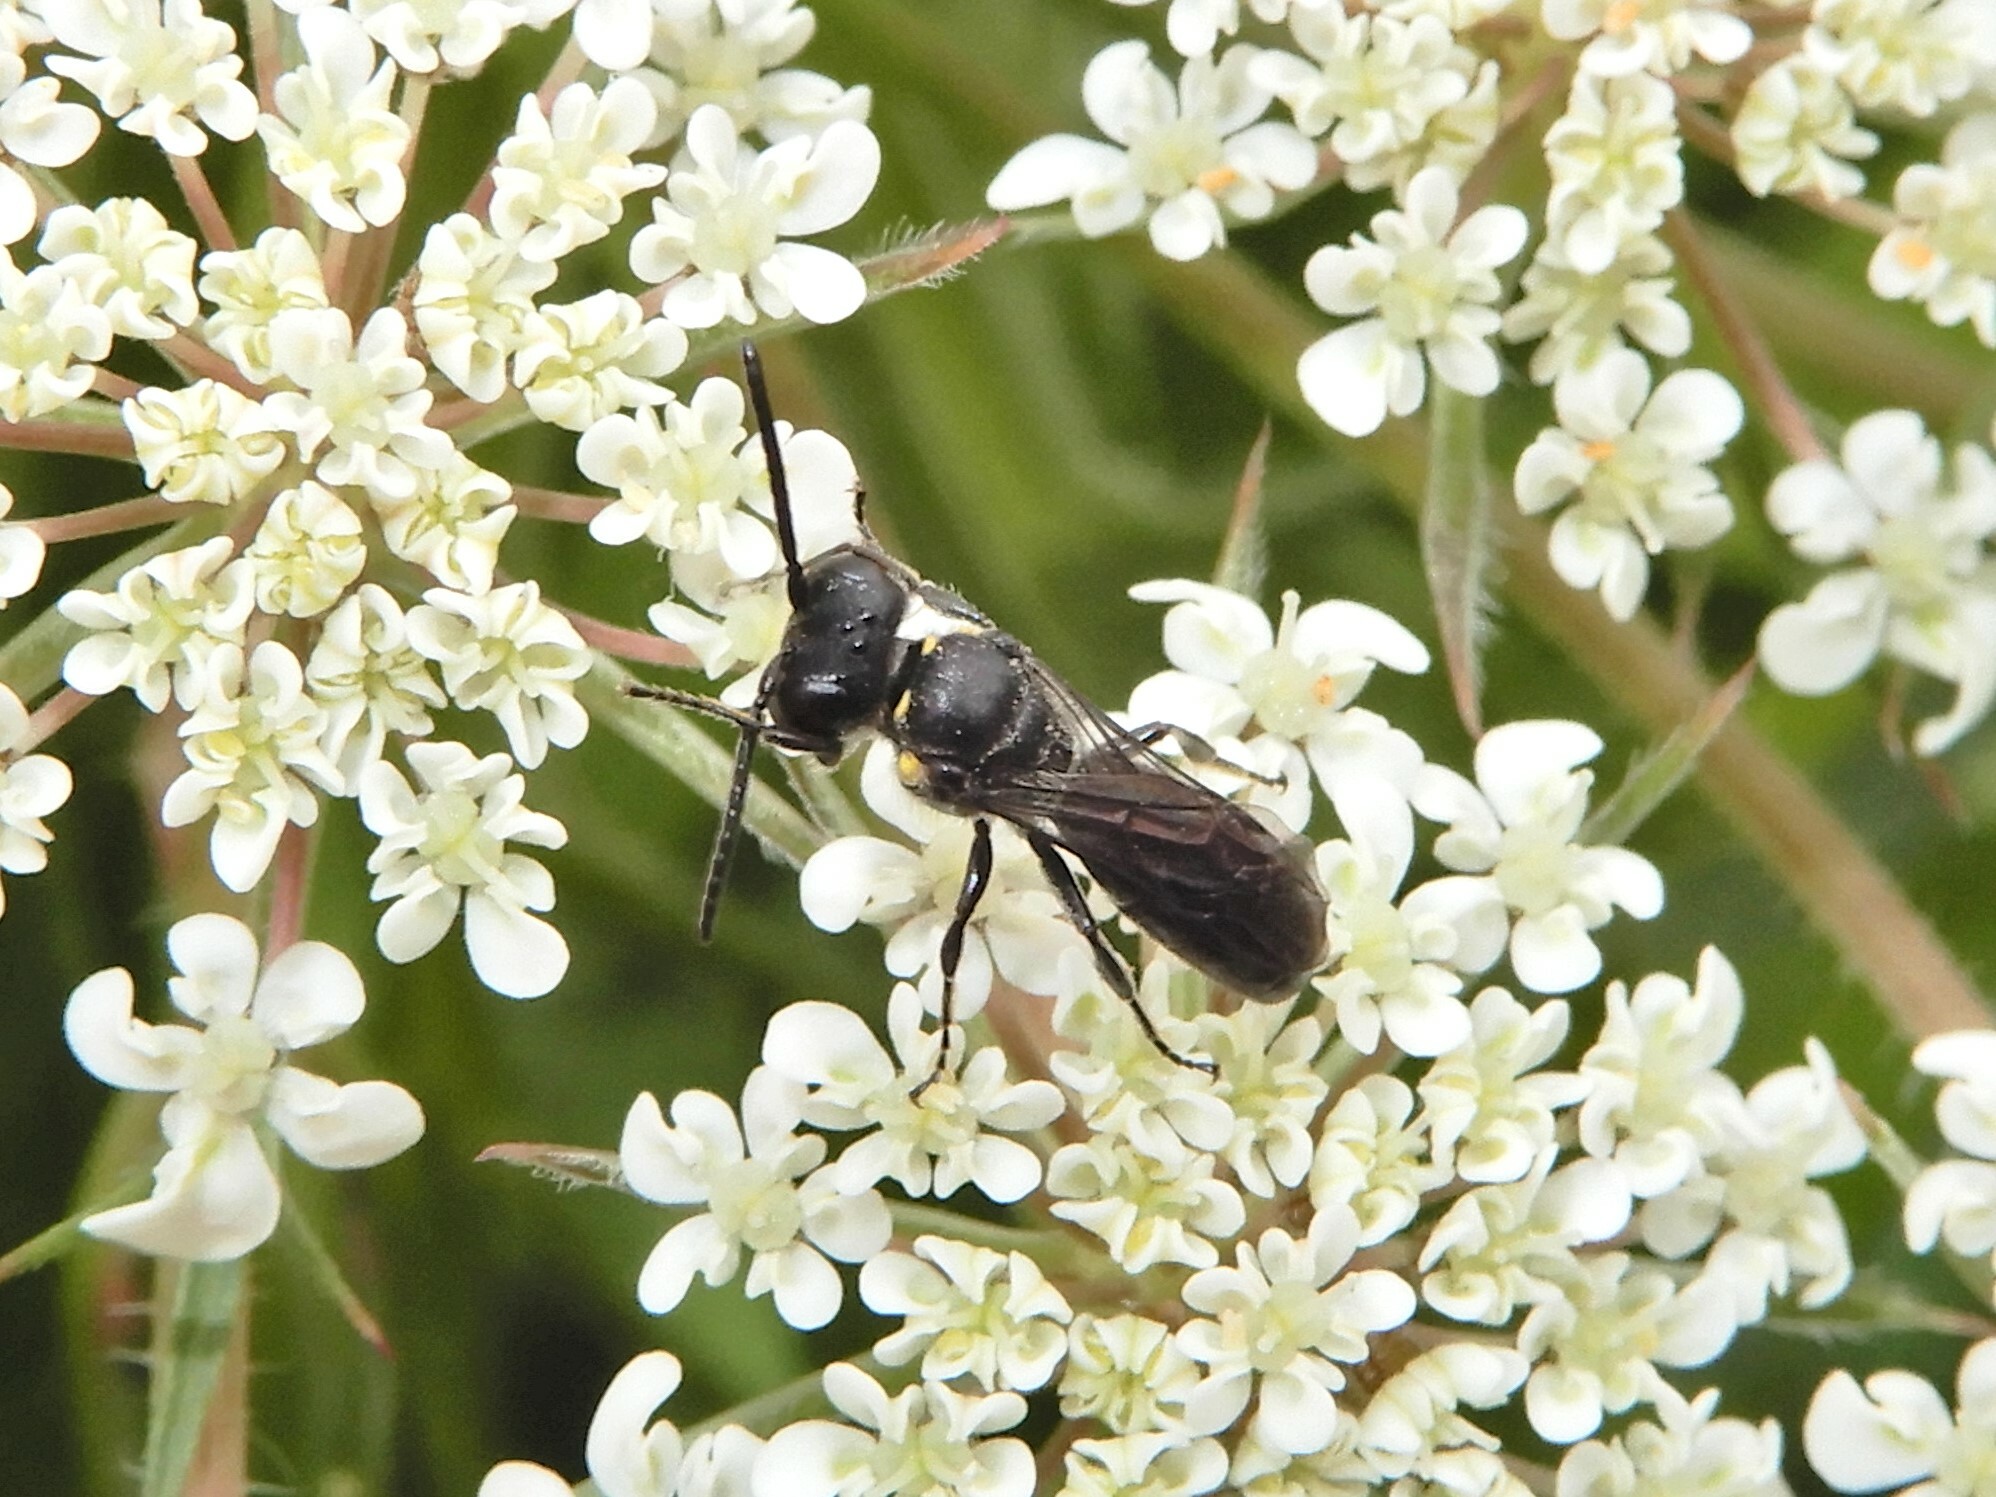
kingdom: Animalia
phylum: Arthropoda
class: Insecta
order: Hymenoptera
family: Colletidae
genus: Hylaeus
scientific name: Hylaeus relegatus
